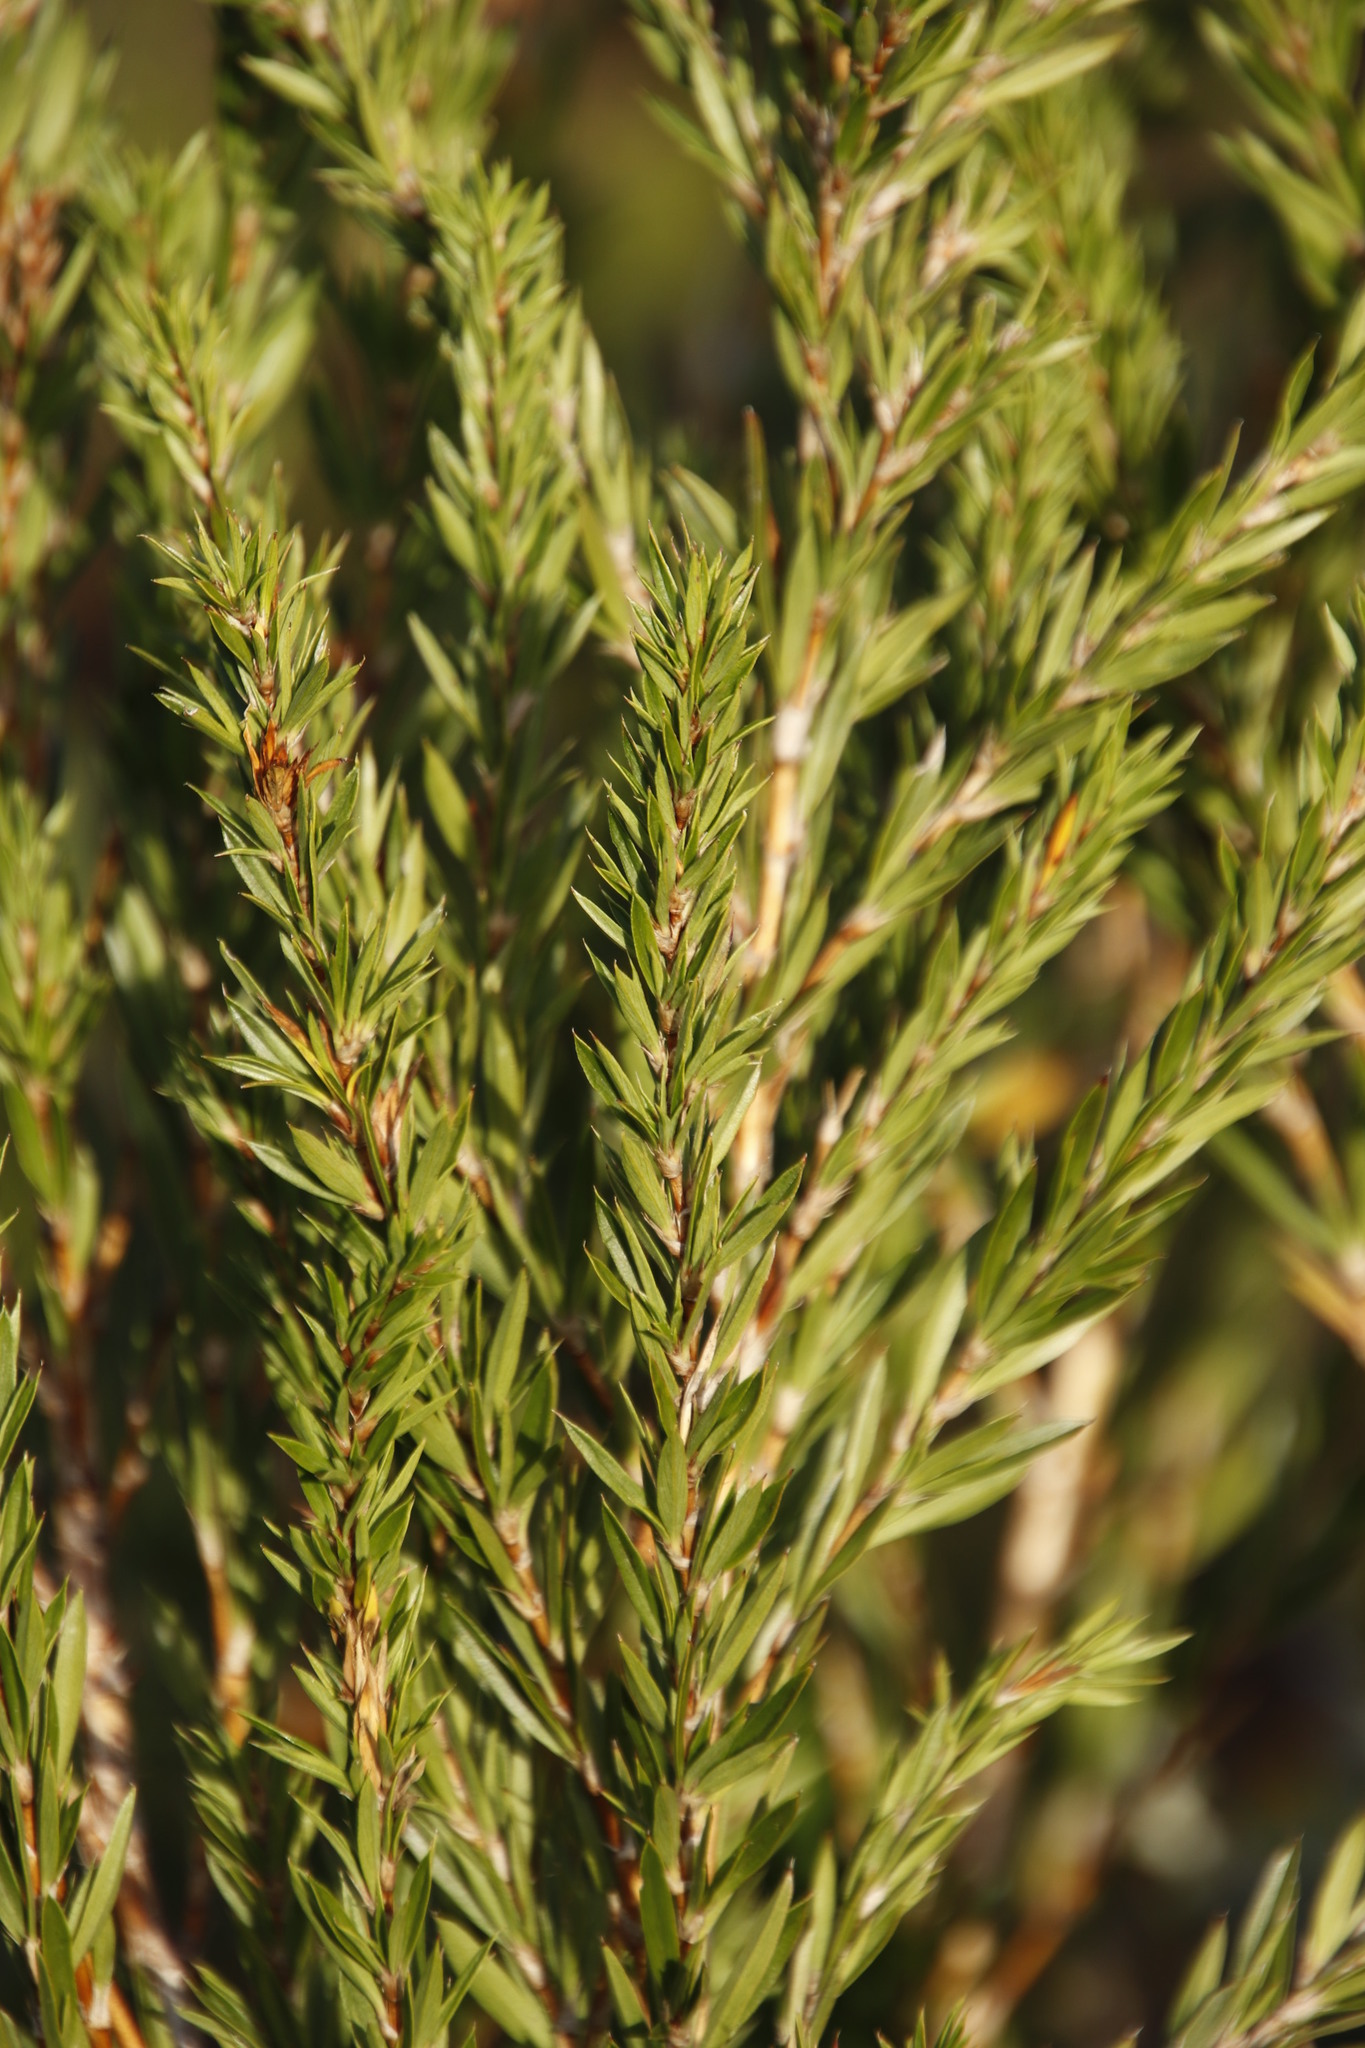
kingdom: Plantae
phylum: Tracheophyta
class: Magnoliopsida
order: Rosales
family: Rosaceae
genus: Cliffortia
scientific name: Cliffortia strobilifera
